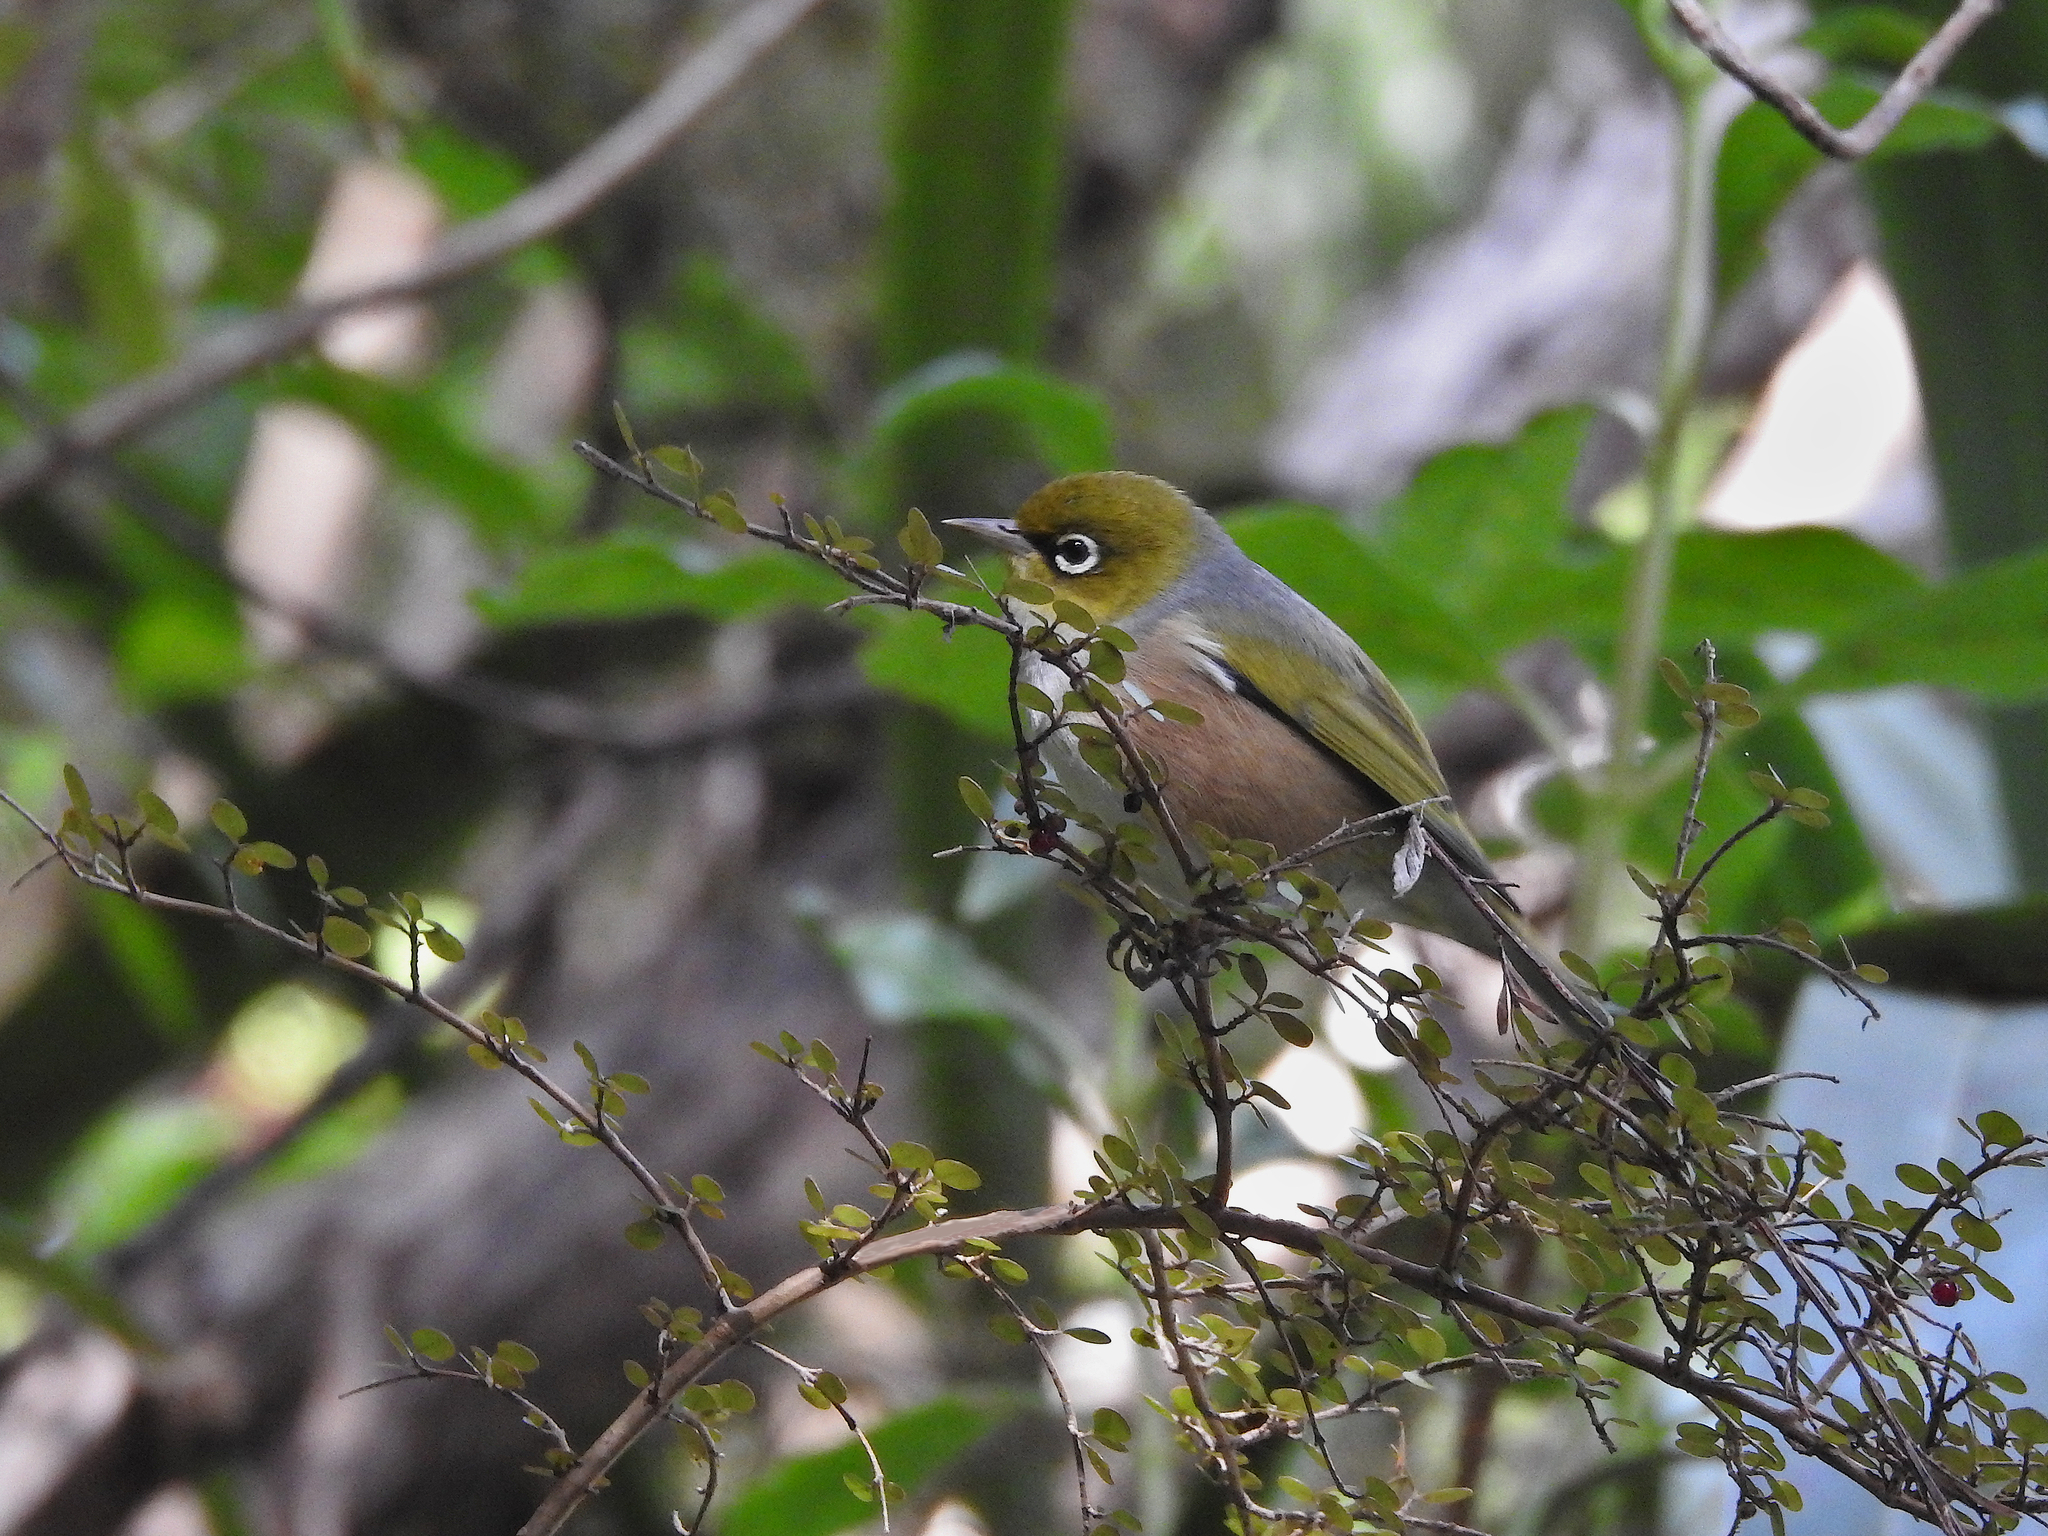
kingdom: Animalia
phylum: Chordata
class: Aves
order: Passeriformes
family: Zosteropidae
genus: Zosterops
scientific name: Zosterops lateralis
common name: Silvereye
